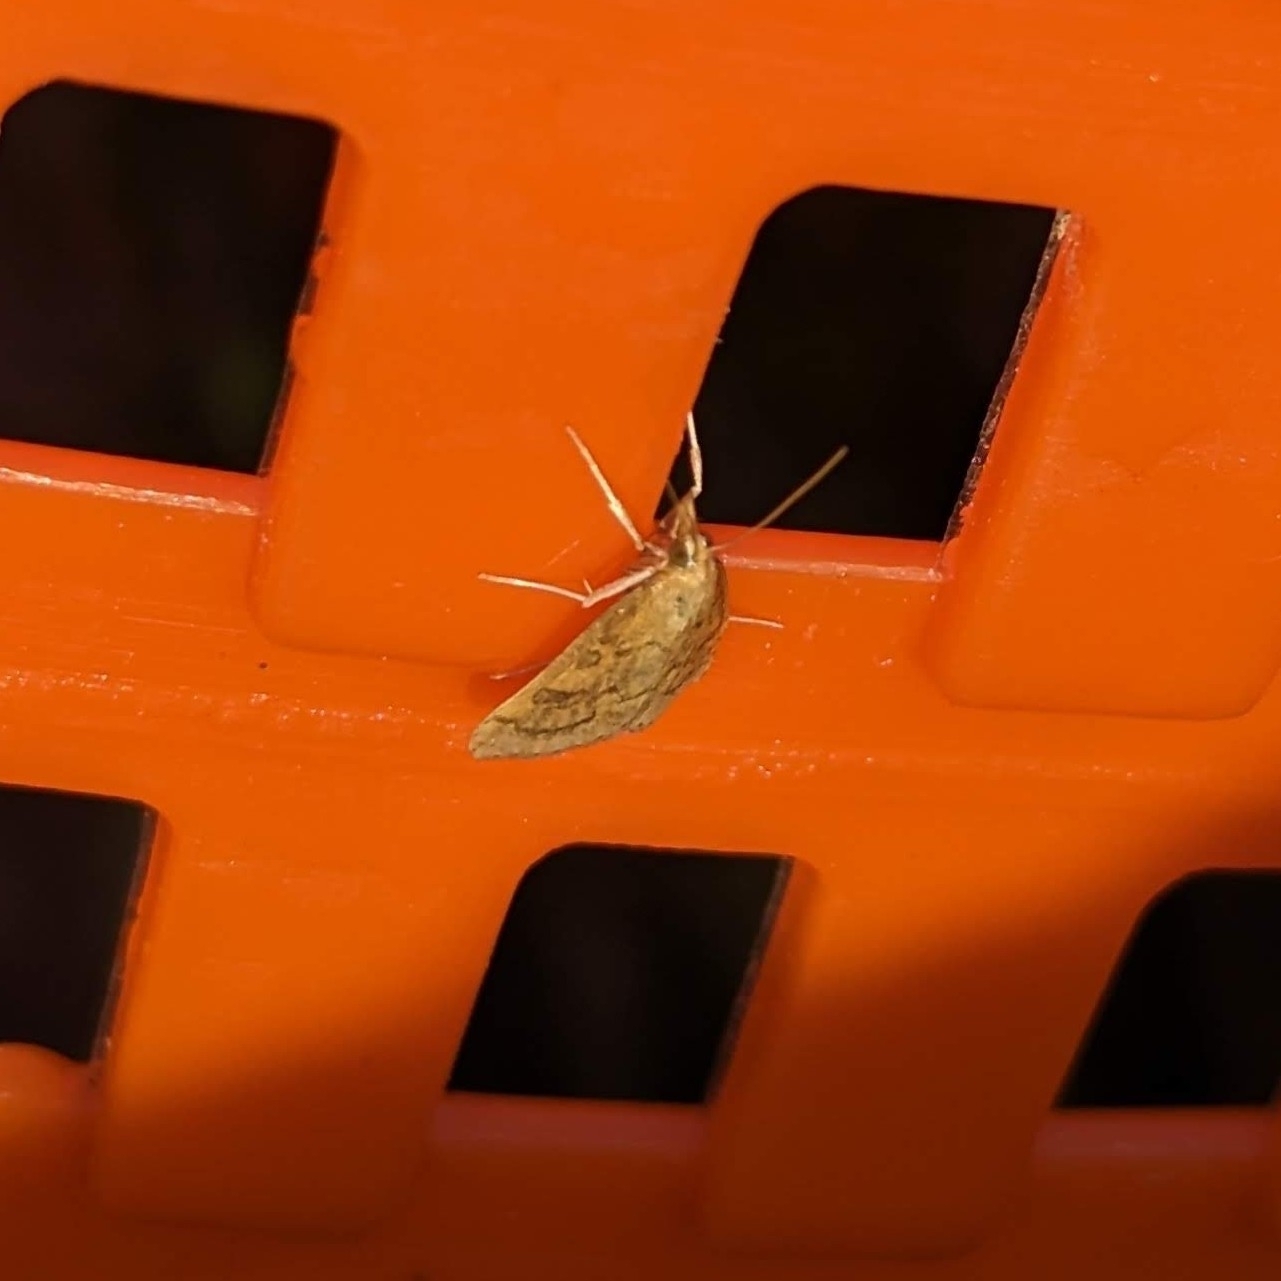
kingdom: Animalia
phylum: Arthropoda
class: Insecta
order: Lepidoptera
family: Crambidae
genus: Udea
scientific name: Udea rubigalis
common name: Celery leaftier moth
